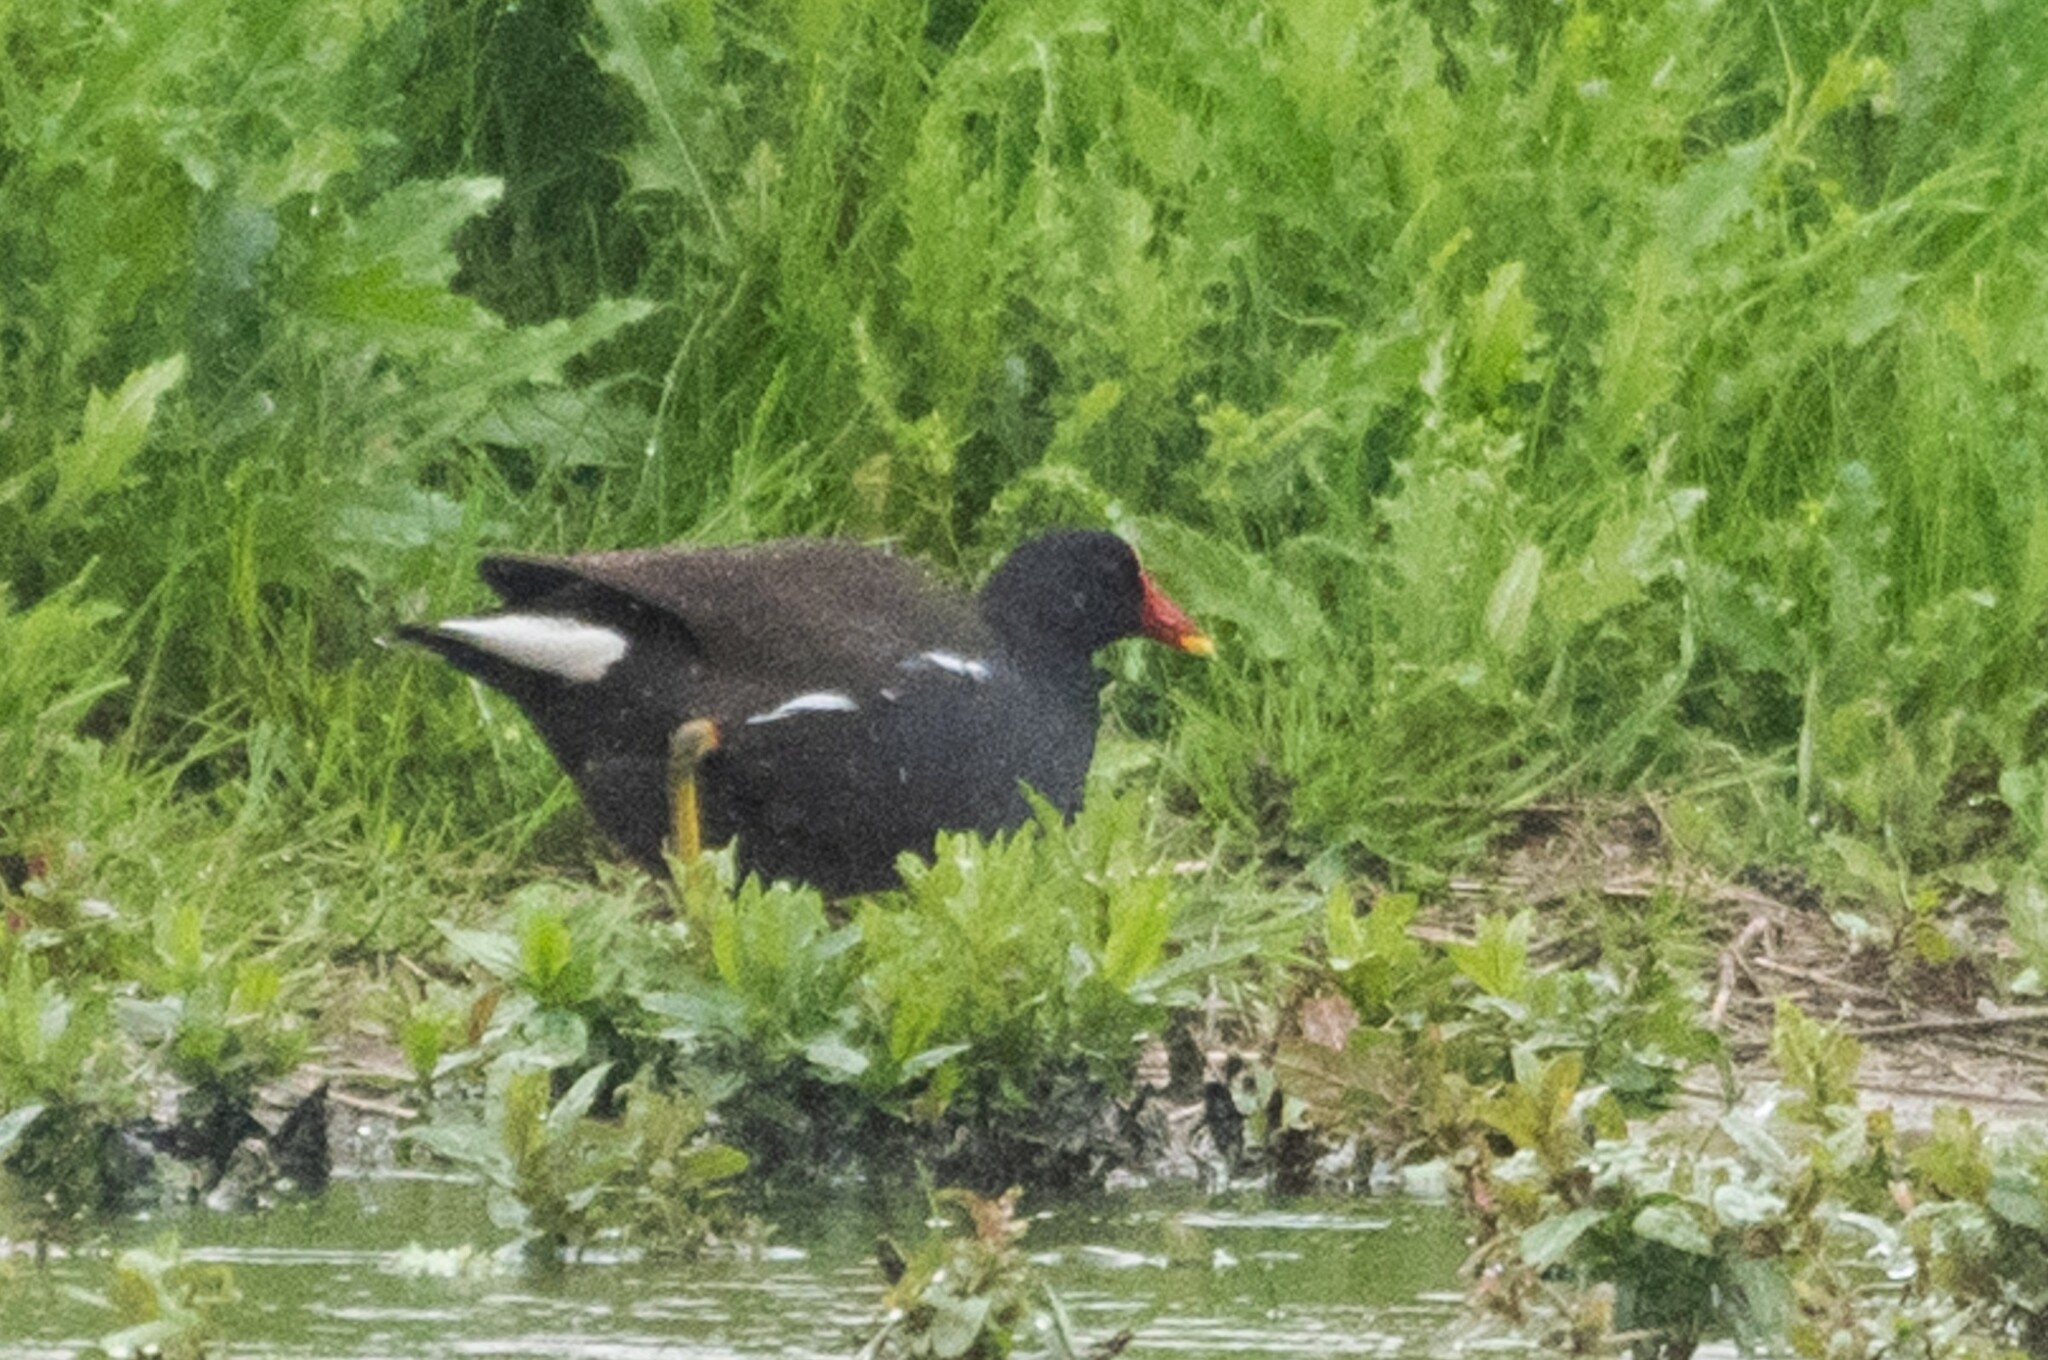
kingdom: Animalia
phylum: Chordata
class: Aves
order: Gruiformes
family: Rallidae
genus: Gallinula
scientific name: Gallinula chloropus
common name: Common moorhen
